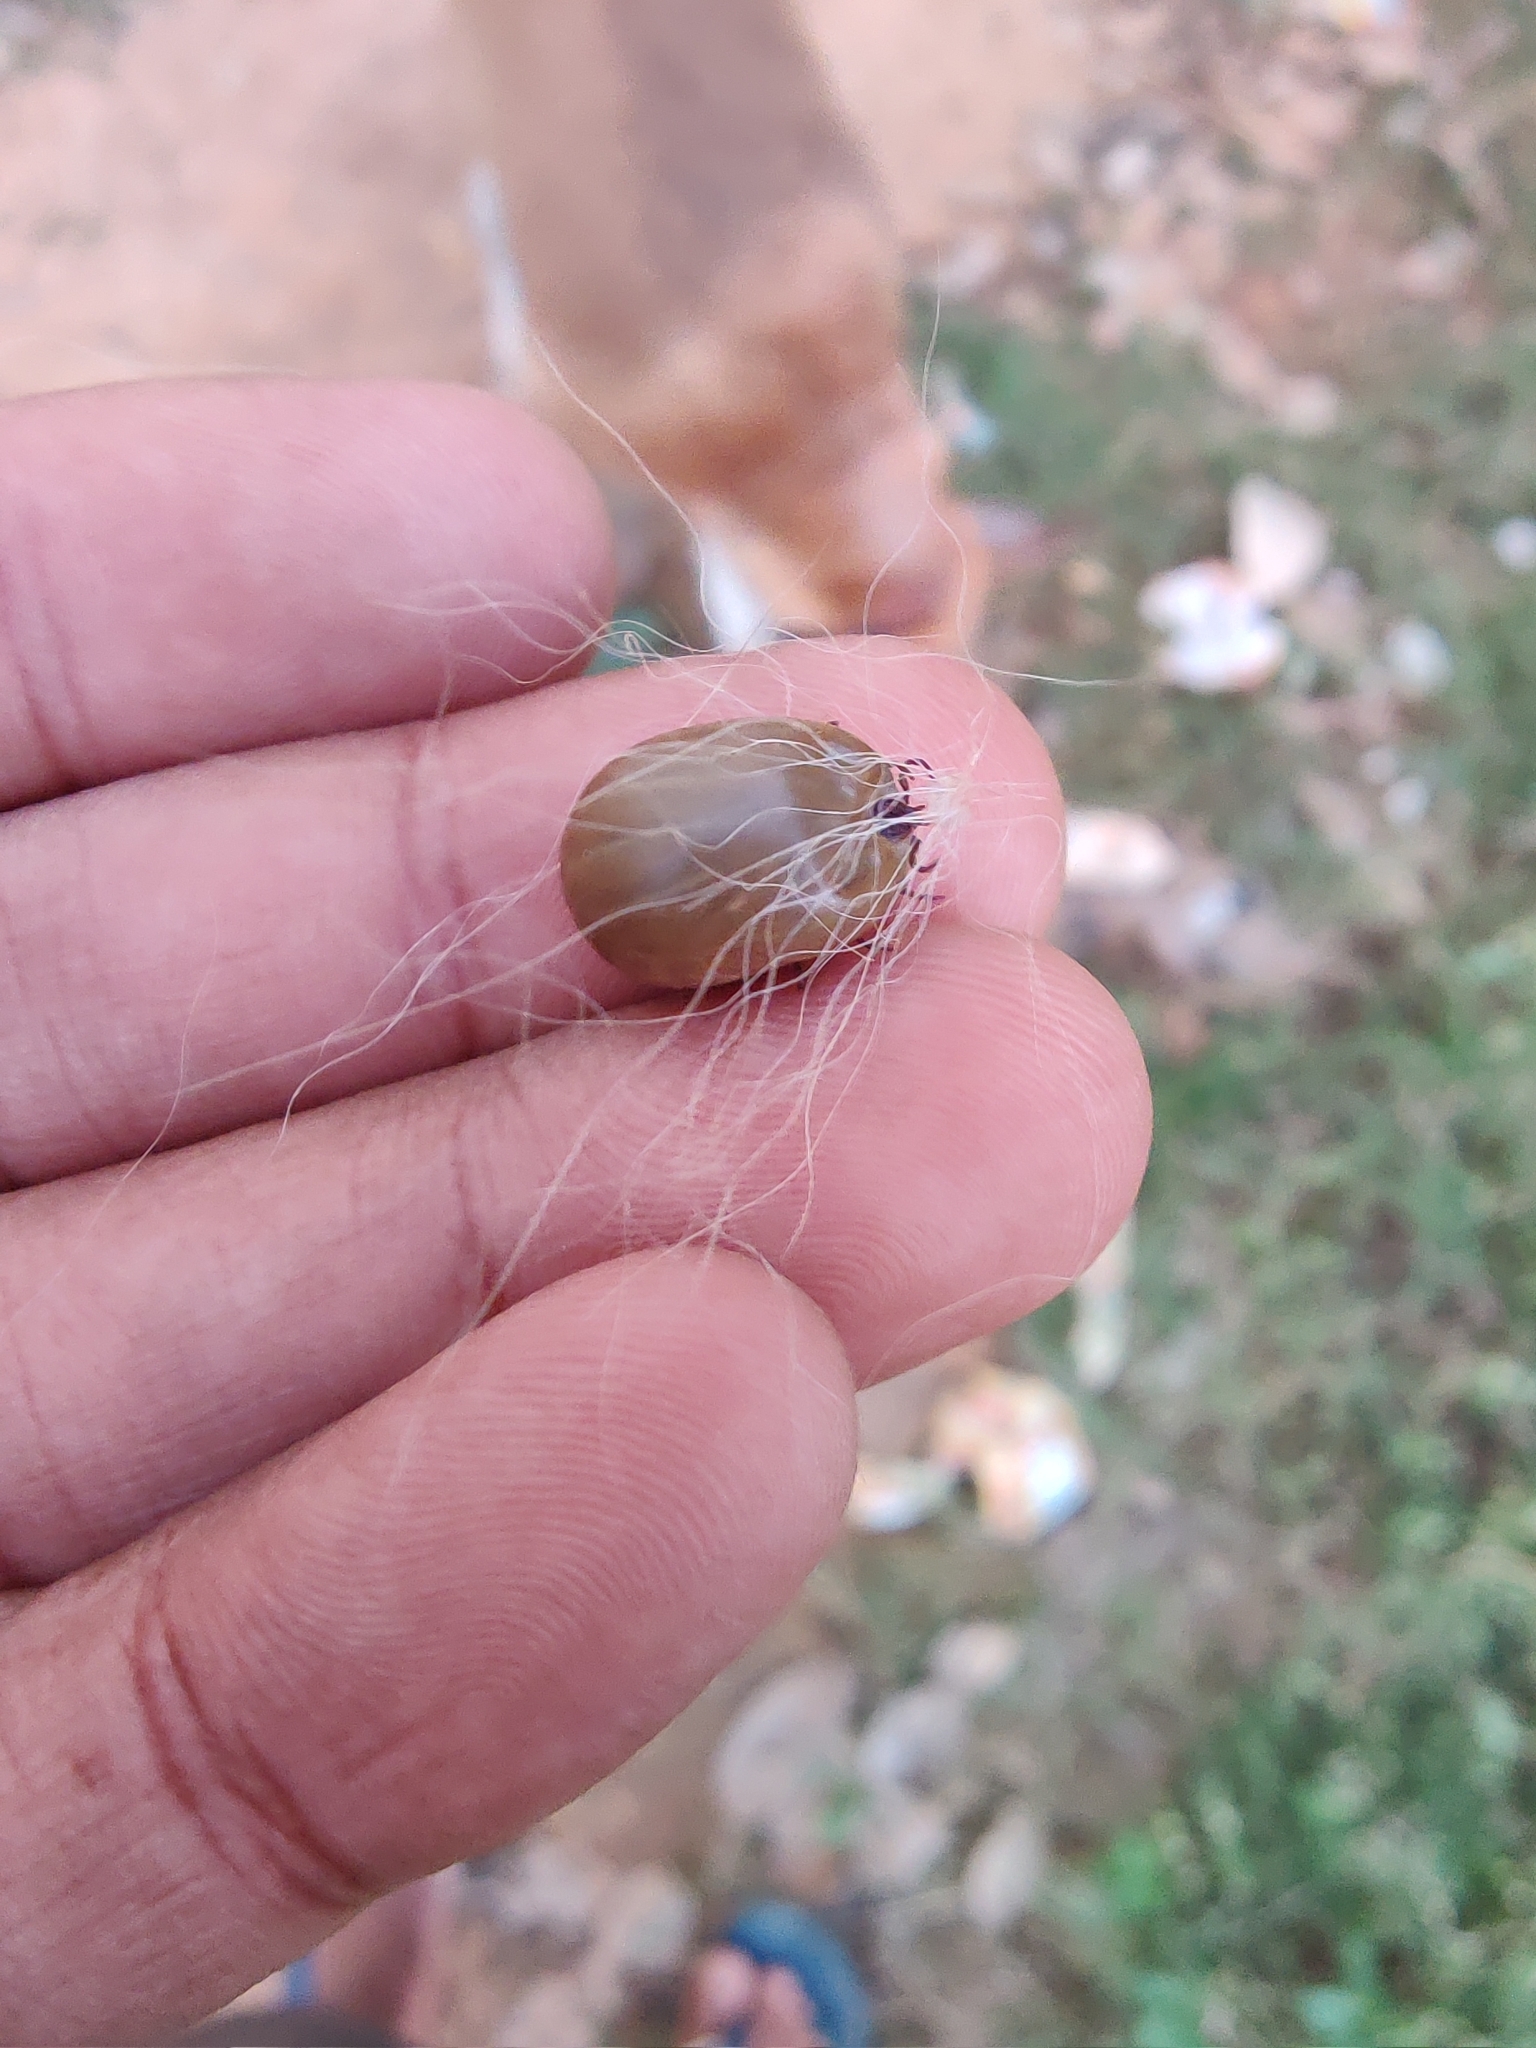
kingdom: Animalia
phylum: Arthropoda
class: Arachnida
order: Ixodida
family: Ixodidae
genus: Rhipicephalus
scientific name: Rhipicephalus sanguineus
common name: Brown dog tick
